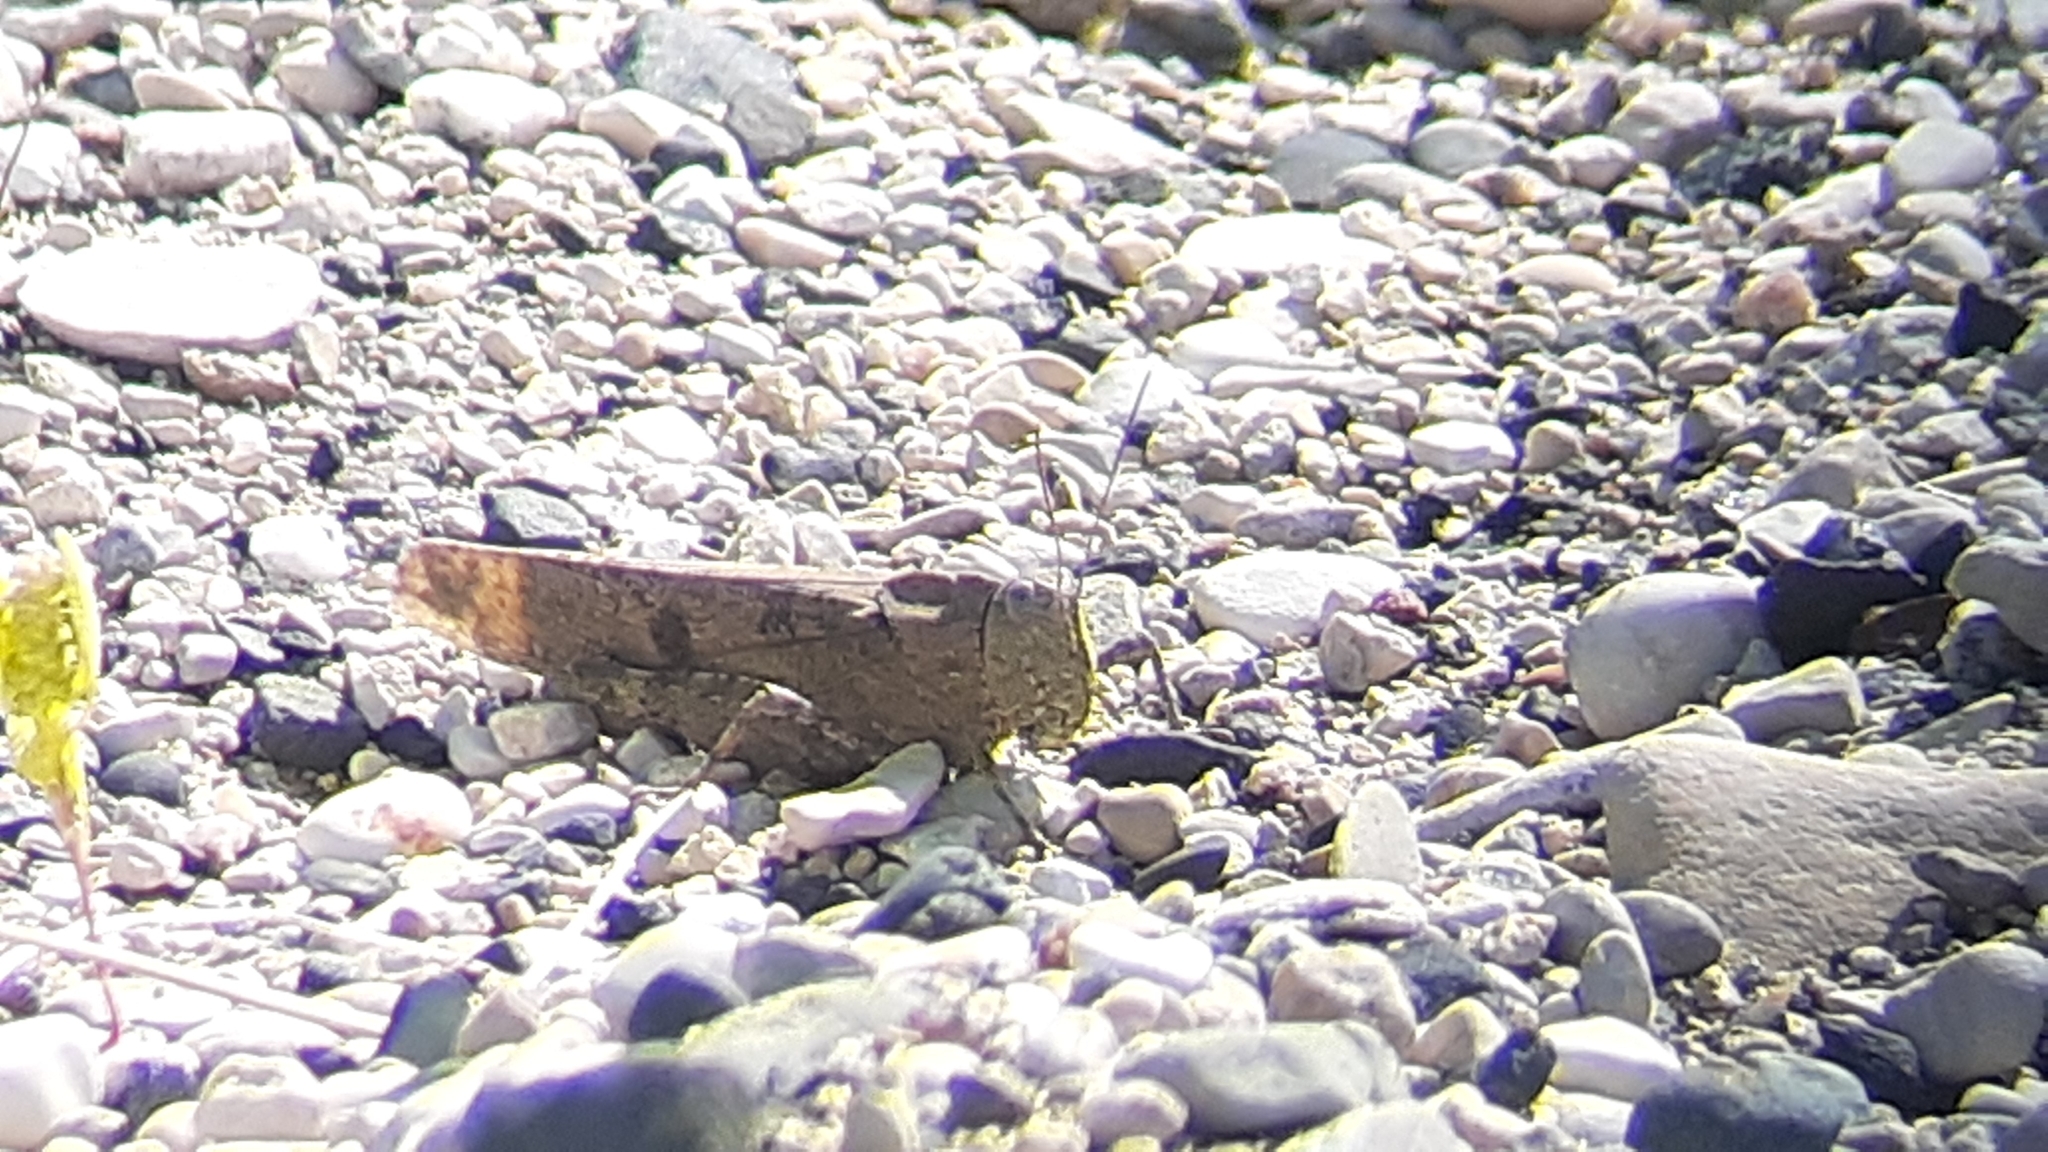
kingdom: Animalia
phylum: Arthropoda
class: Insecta
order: Orthoptera
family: Acrididae
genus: Dissosteira
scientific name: Dissosteira carolina
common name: Carolina grasshopper
